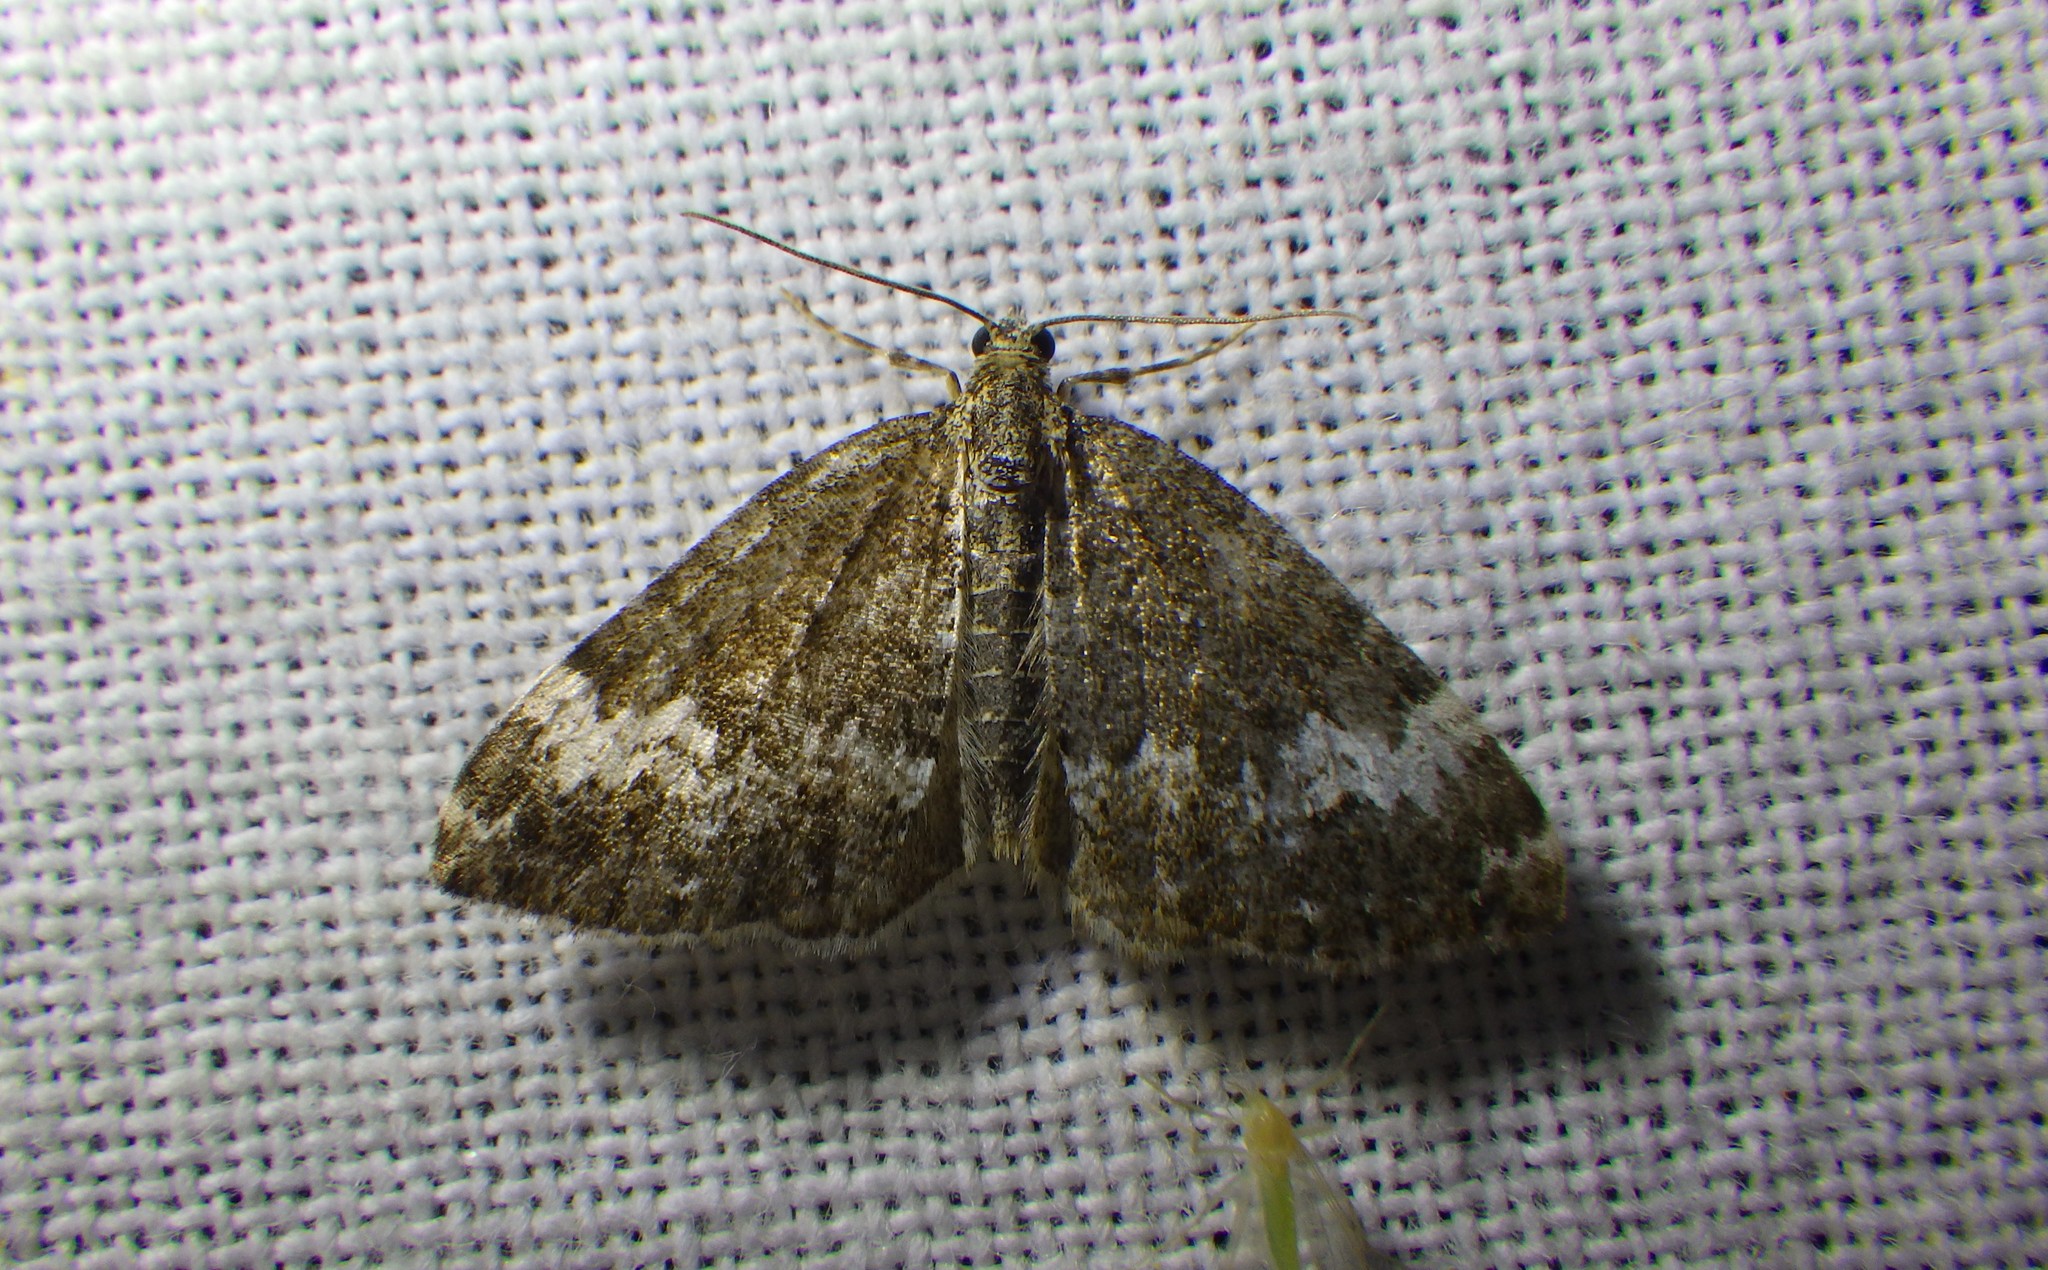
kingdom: Animalia
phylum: Arthropoda
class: Insecta
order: Lepidoptera
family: Geometridae
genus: Perizoma
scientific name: Perizoma alchemillata
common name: Small rivulet
